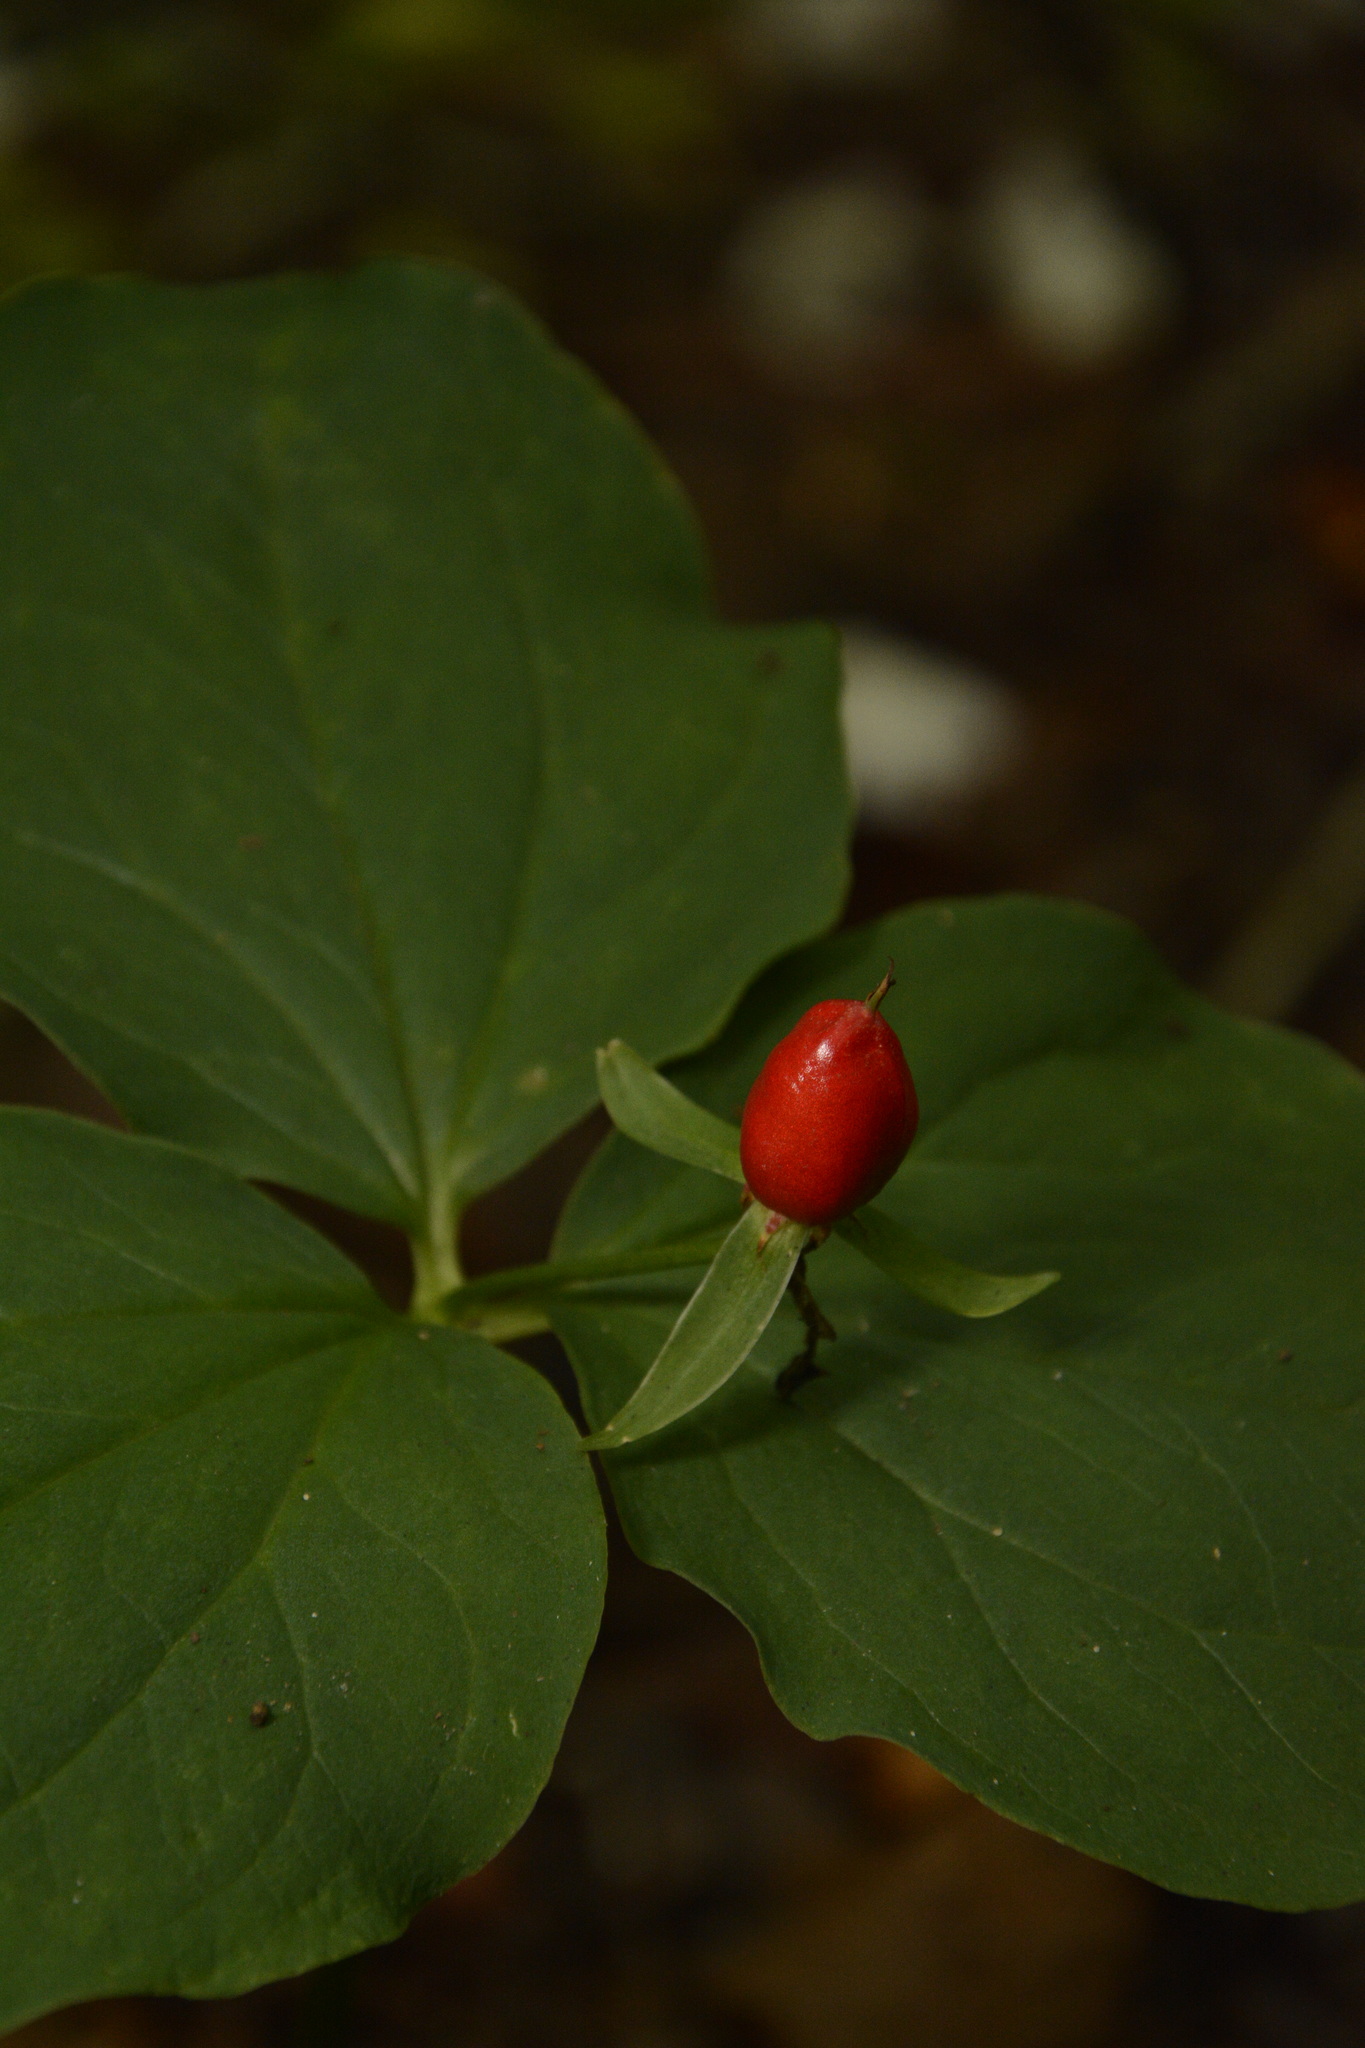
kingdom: Plantae
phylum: Tracheophyta
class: Liliopsida
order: Liliales
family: Melanthiaceae
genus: Trillium
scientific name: Trillium undulatum
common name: Paint trillium
